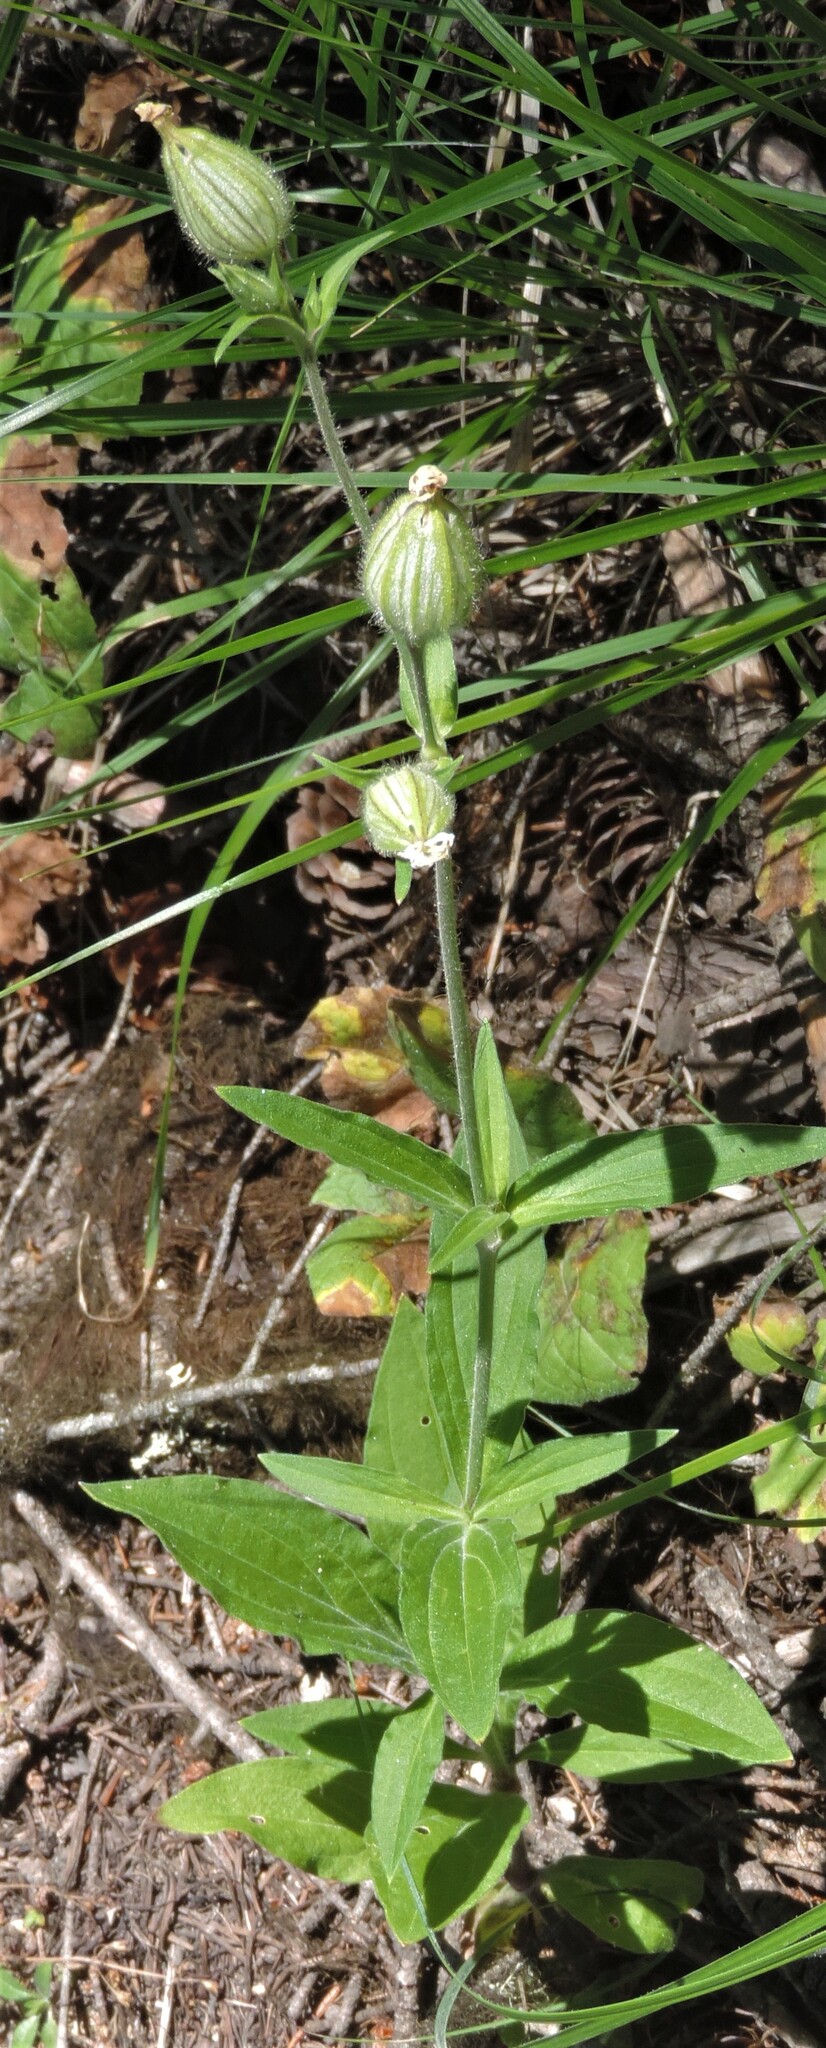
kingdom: Plantae
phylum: Tracheophyta
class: Magnoliopsida
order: Caryophyllales
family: Caryophyllaceae
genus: Silene
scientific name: Silene latifolia
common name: White campion
